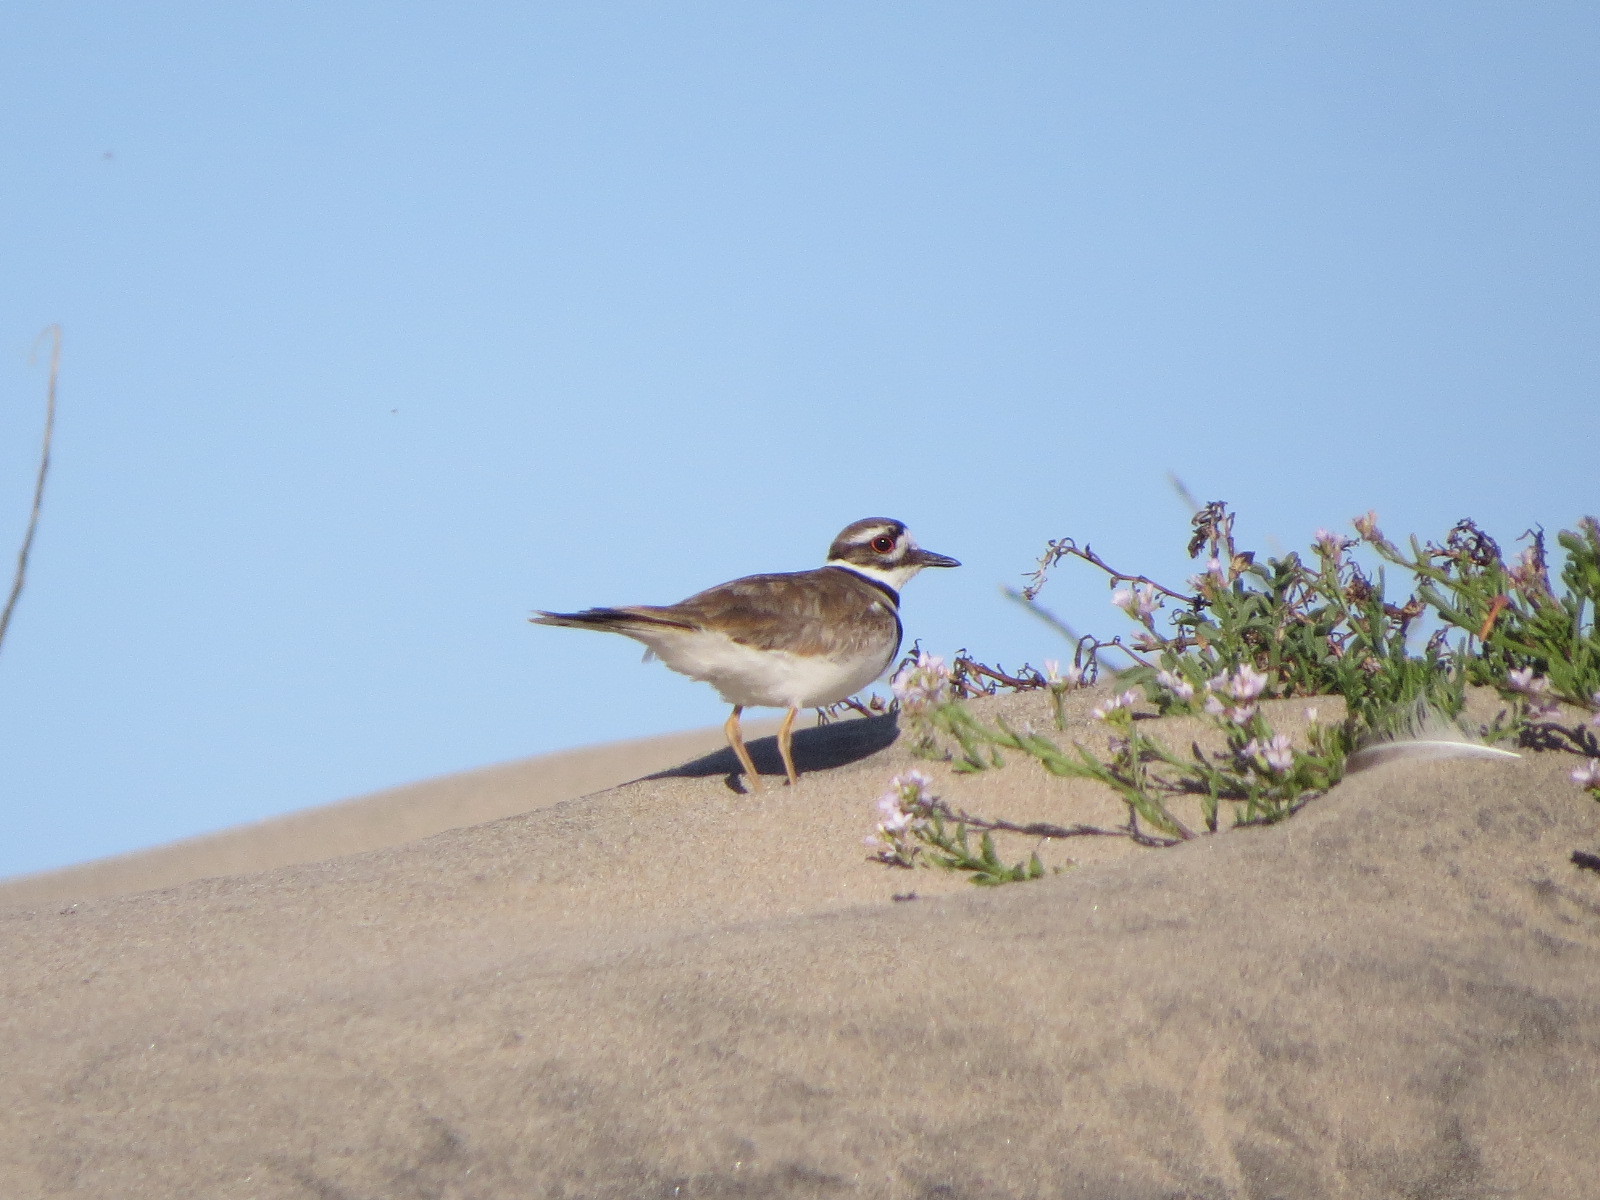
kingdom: Animalia
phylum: Chordata
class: Aves
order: Charadriiformes
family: Charadriidae
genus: Charadrius
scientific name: Charadrius vociferus
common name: Killdeer
